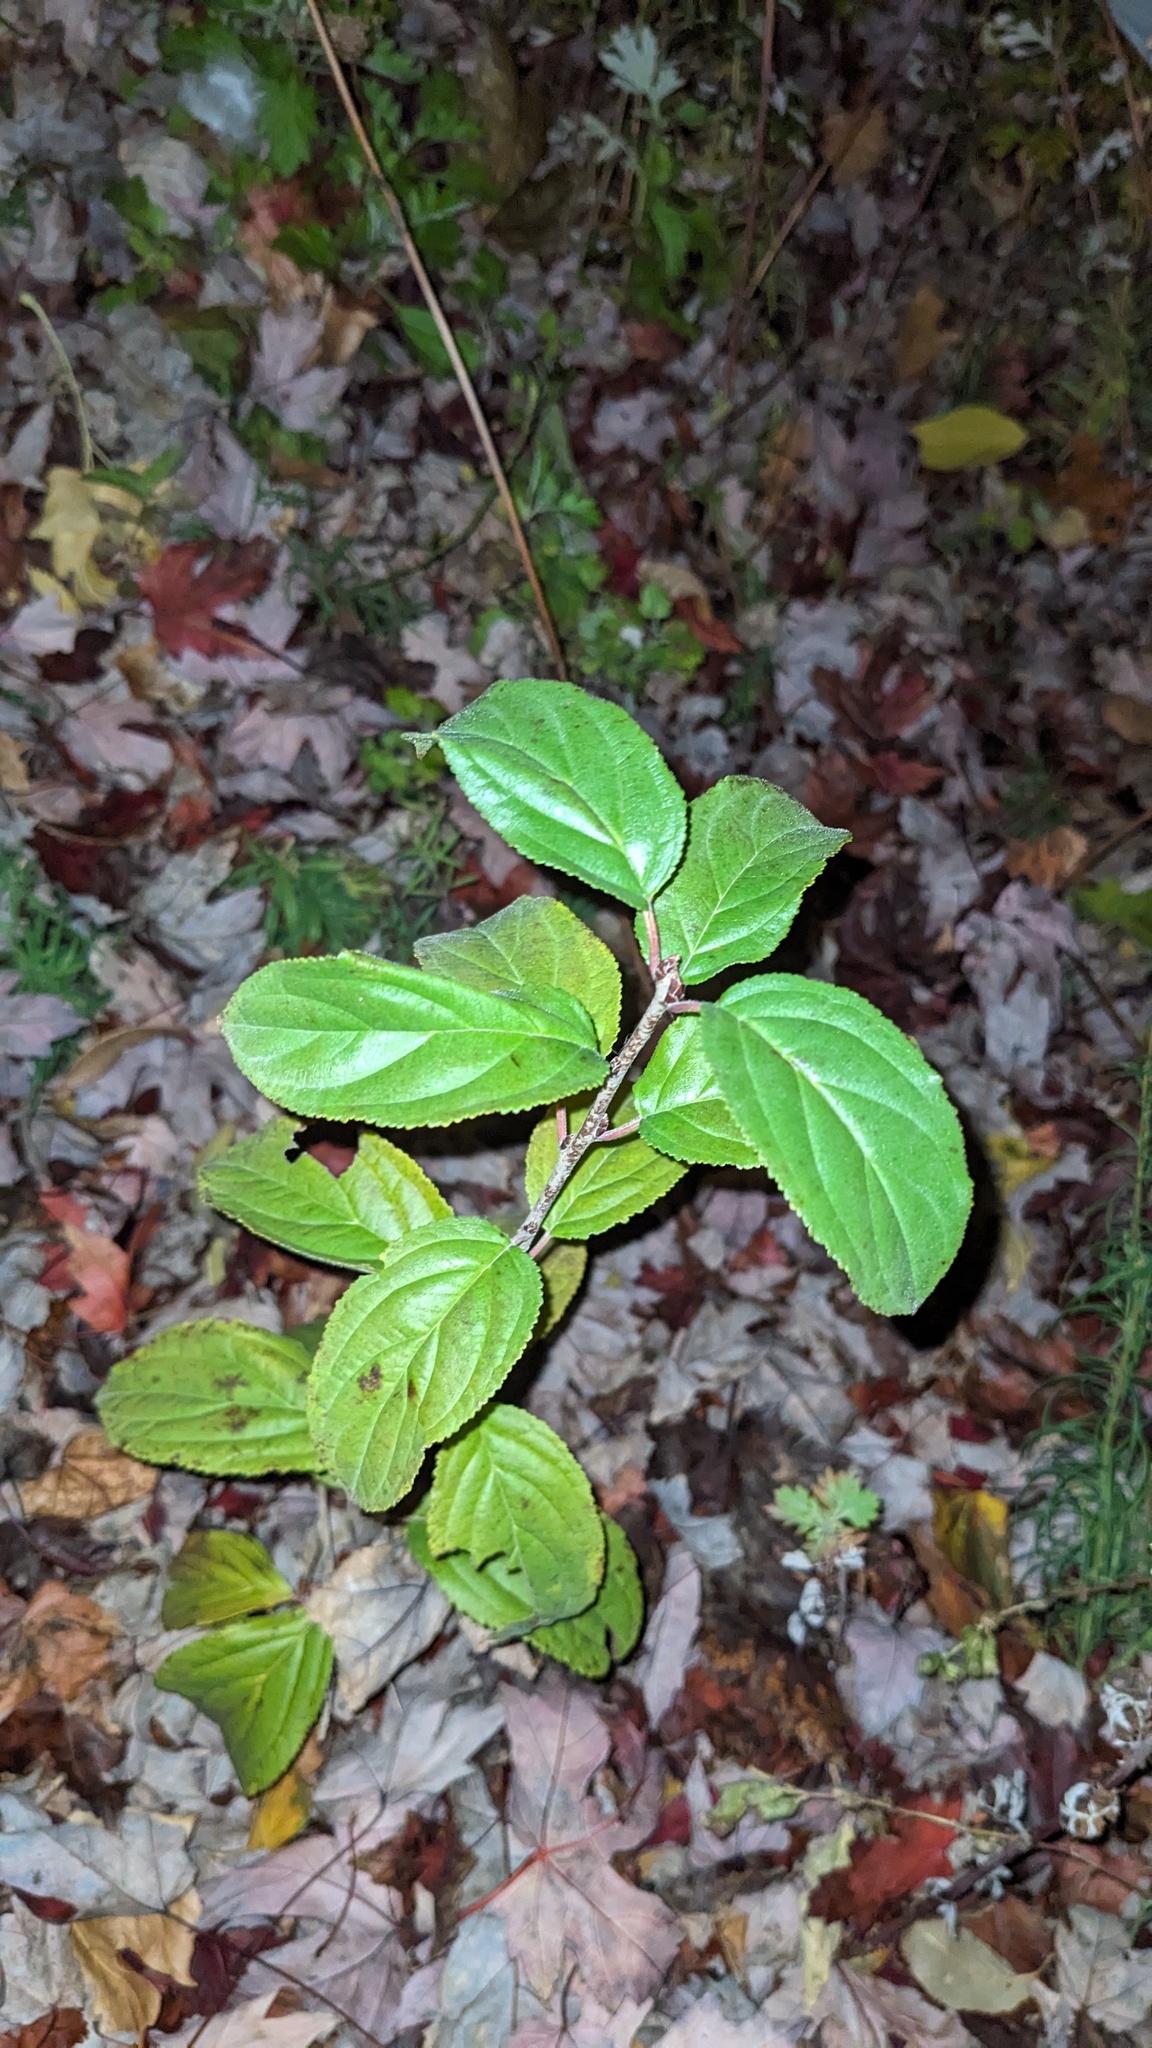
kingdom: Plantae
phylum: Tracheophyta
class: Magnoliopsida
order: Rosales
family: Rhamnaceae
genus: Rhamnus
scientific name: Rhamnus cathartica
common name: Common buckthorn
